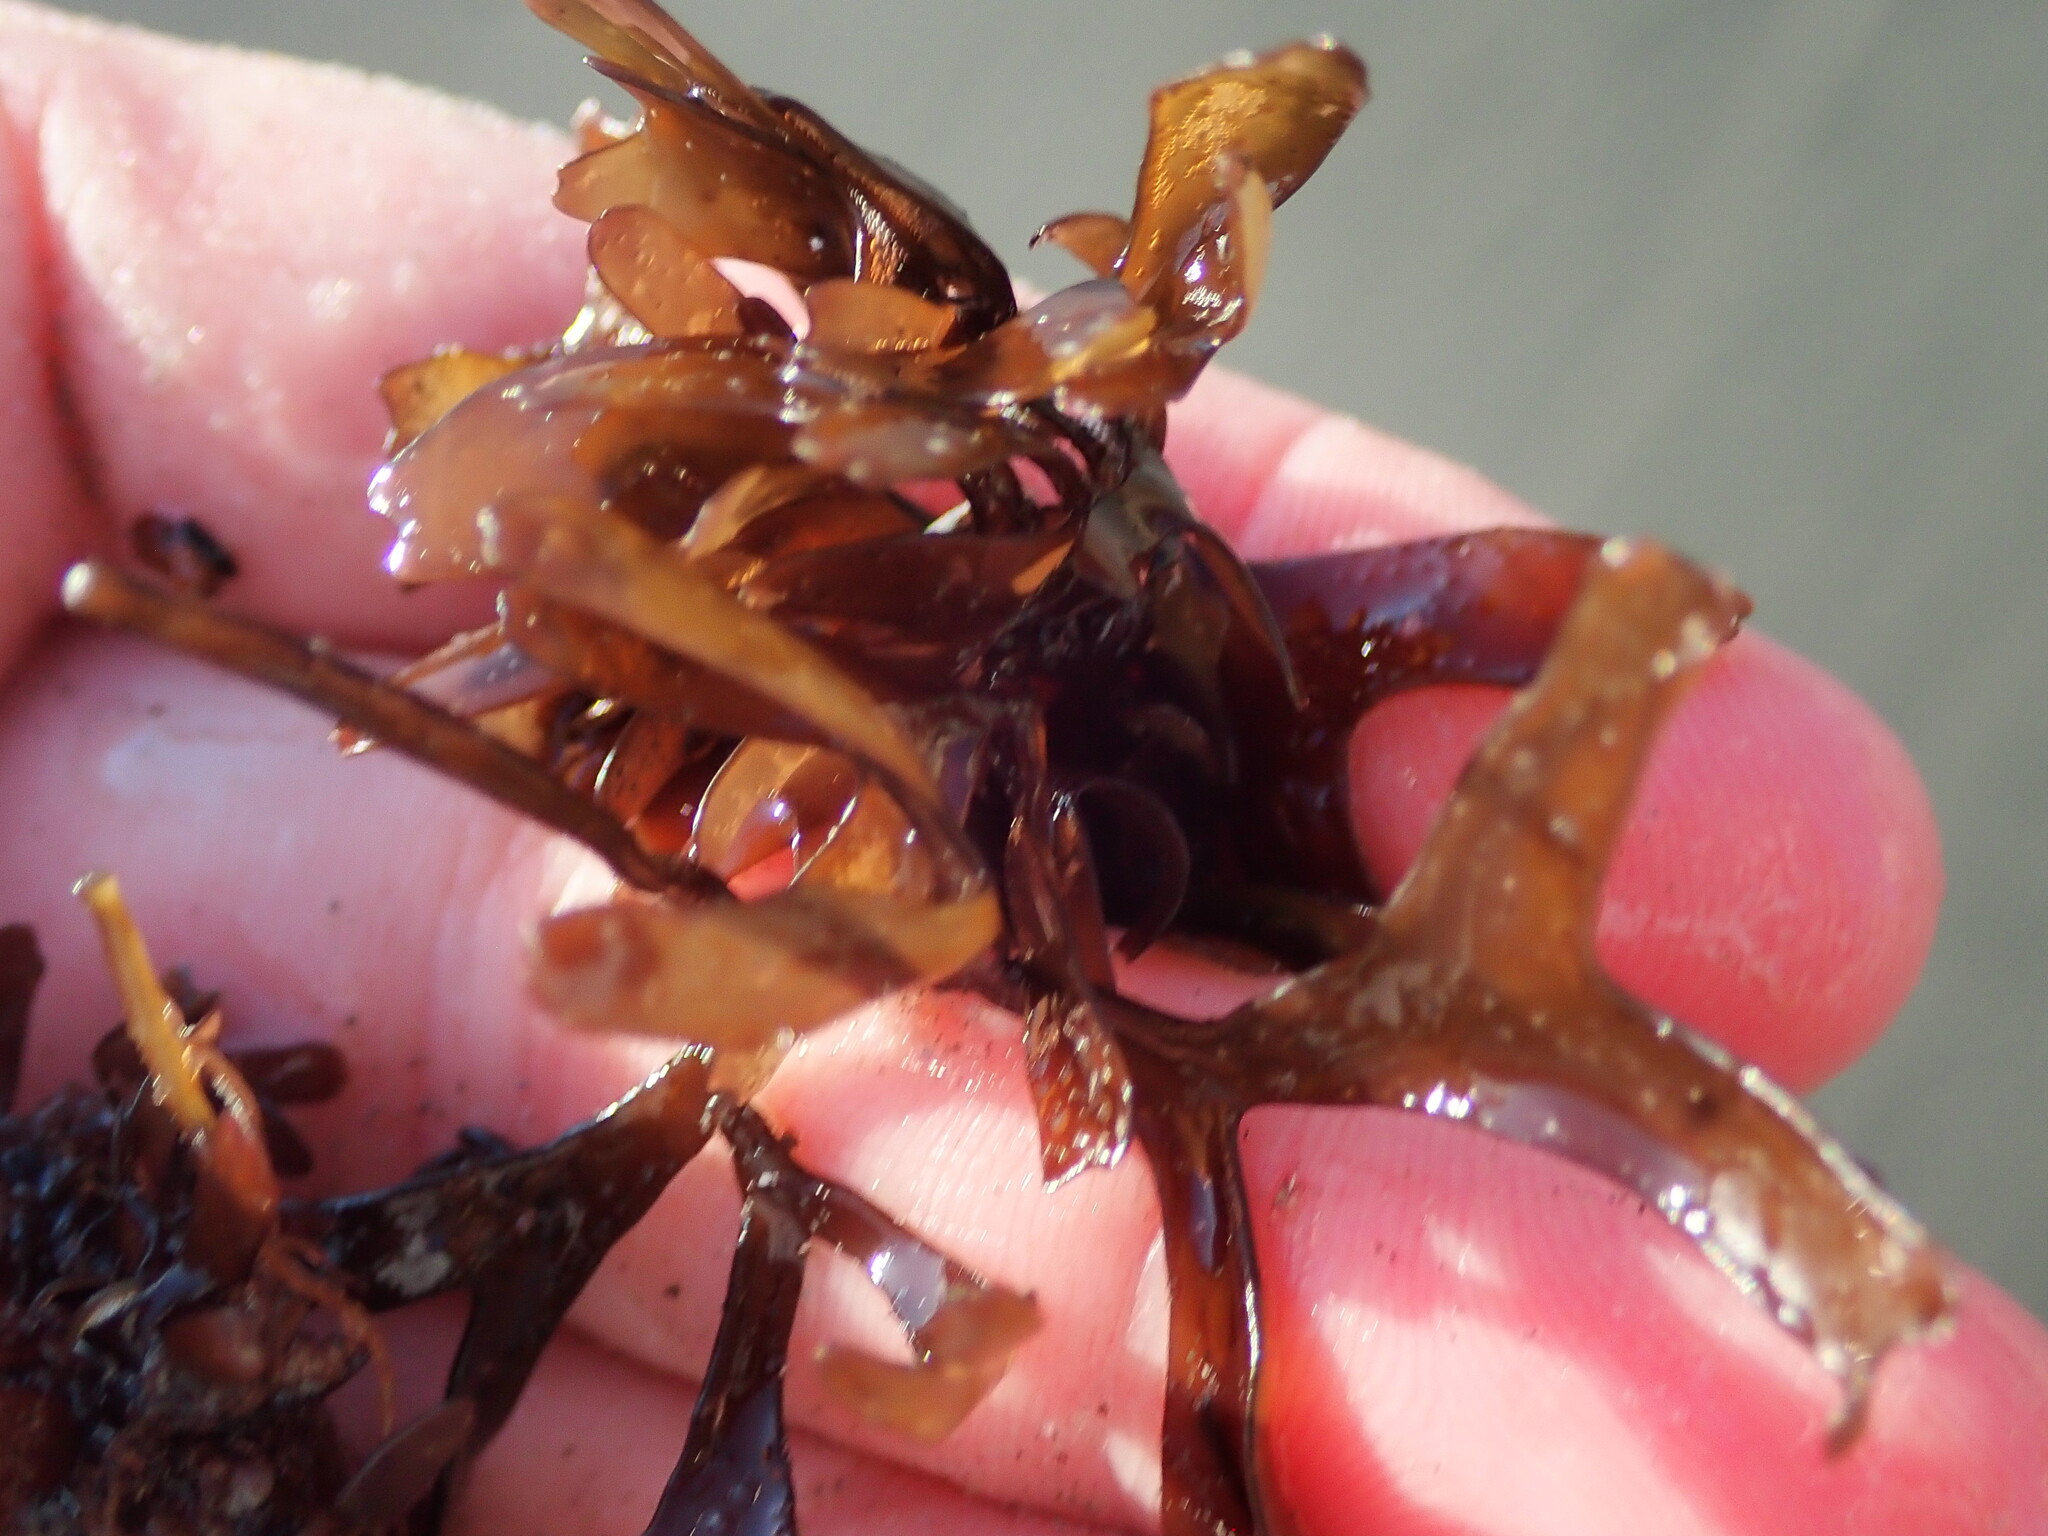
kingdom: Plantae
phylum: Rhodophyta
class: Florideophyceae
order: Gigartinales
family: Gigartinaceae
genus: Chondrus
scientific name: Chondrus crispus
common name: Carrageen
